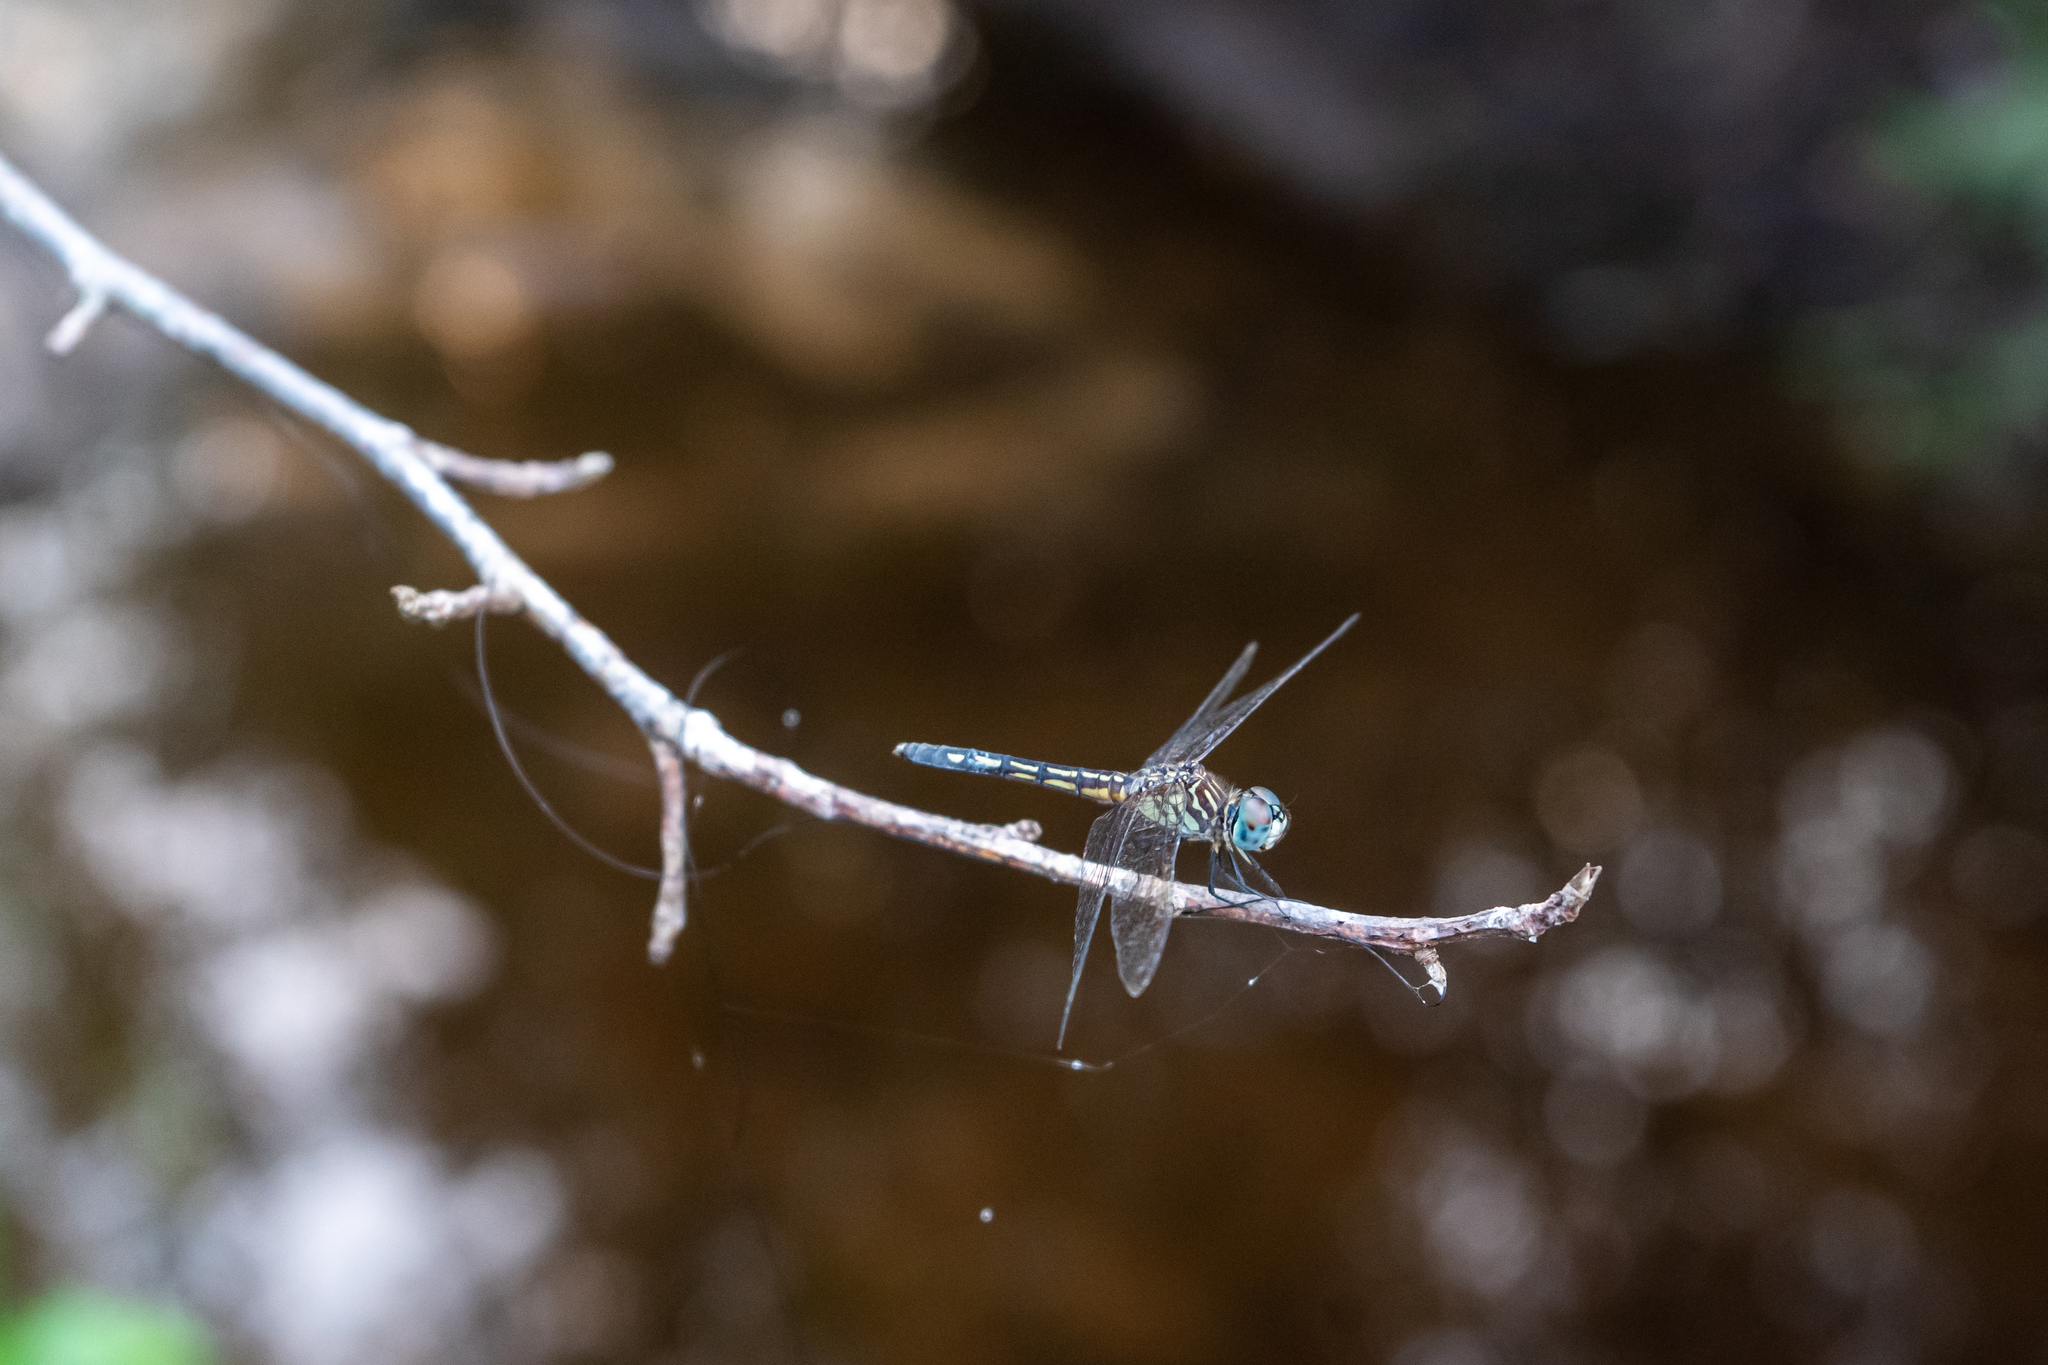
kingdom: Animalia
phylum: Arthropoda
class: Insecta
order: Odonata
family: Libellulidae
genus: Pachydiplax
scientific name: Pachydiplax longipennis
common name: Blue dasher
